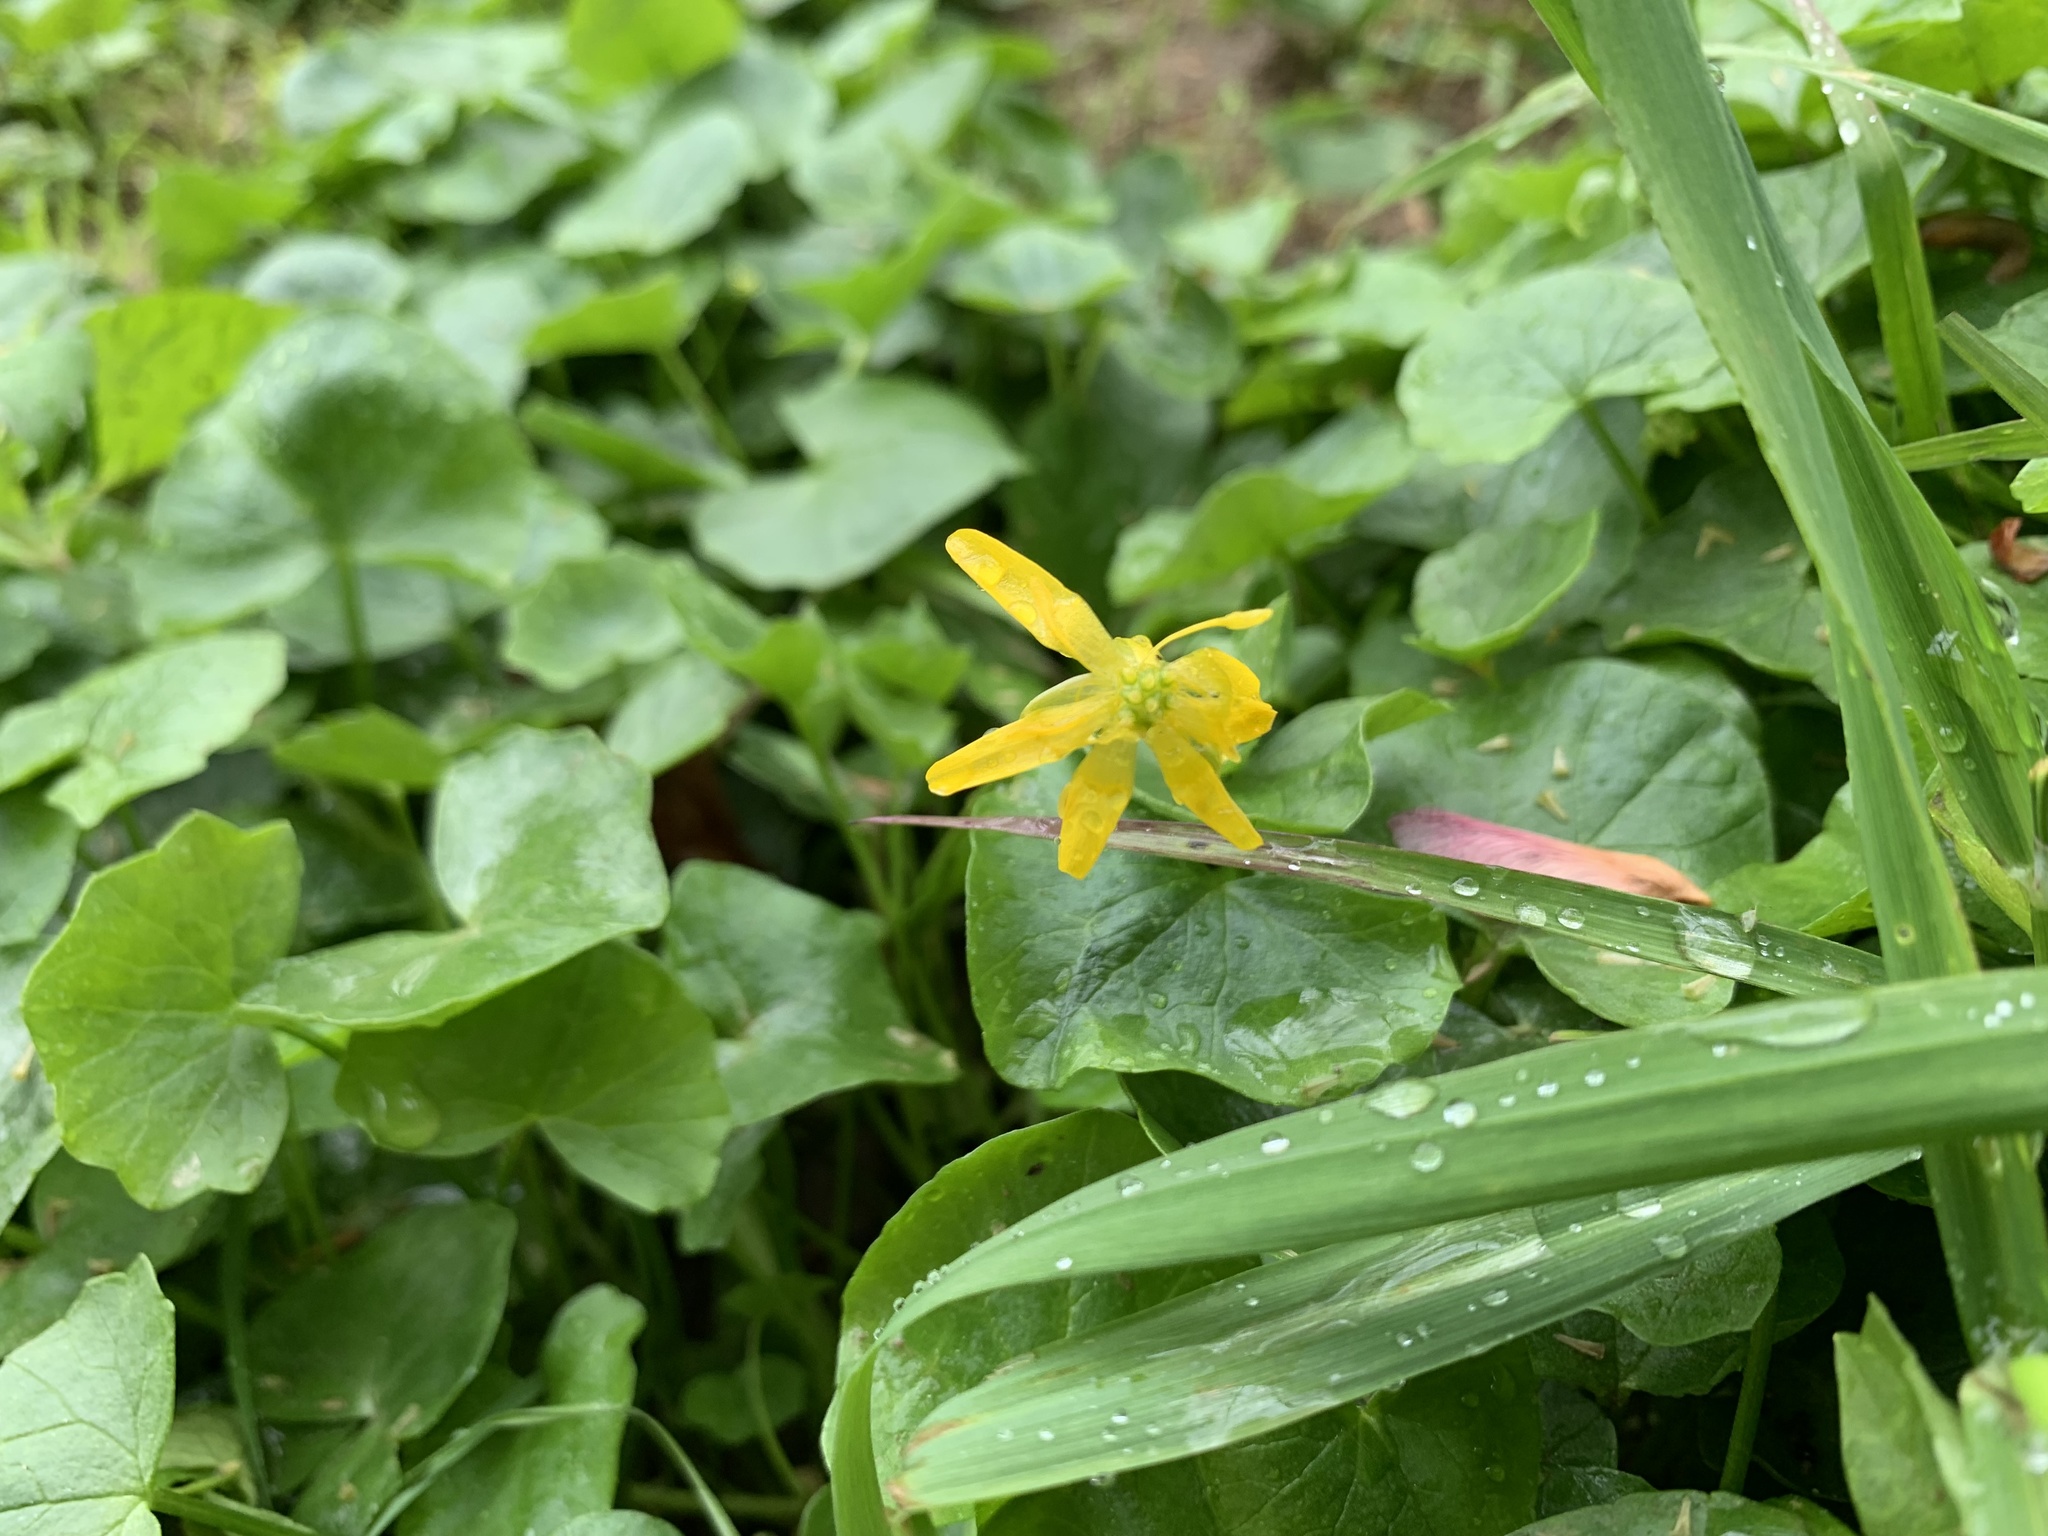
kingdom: Plantae
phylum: Tracheophyta
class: Magnoliopsida
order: Ranunculales
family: Ranunculaceae
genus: Ficaria
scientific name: Ficaria verna
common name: Lesser celandine
